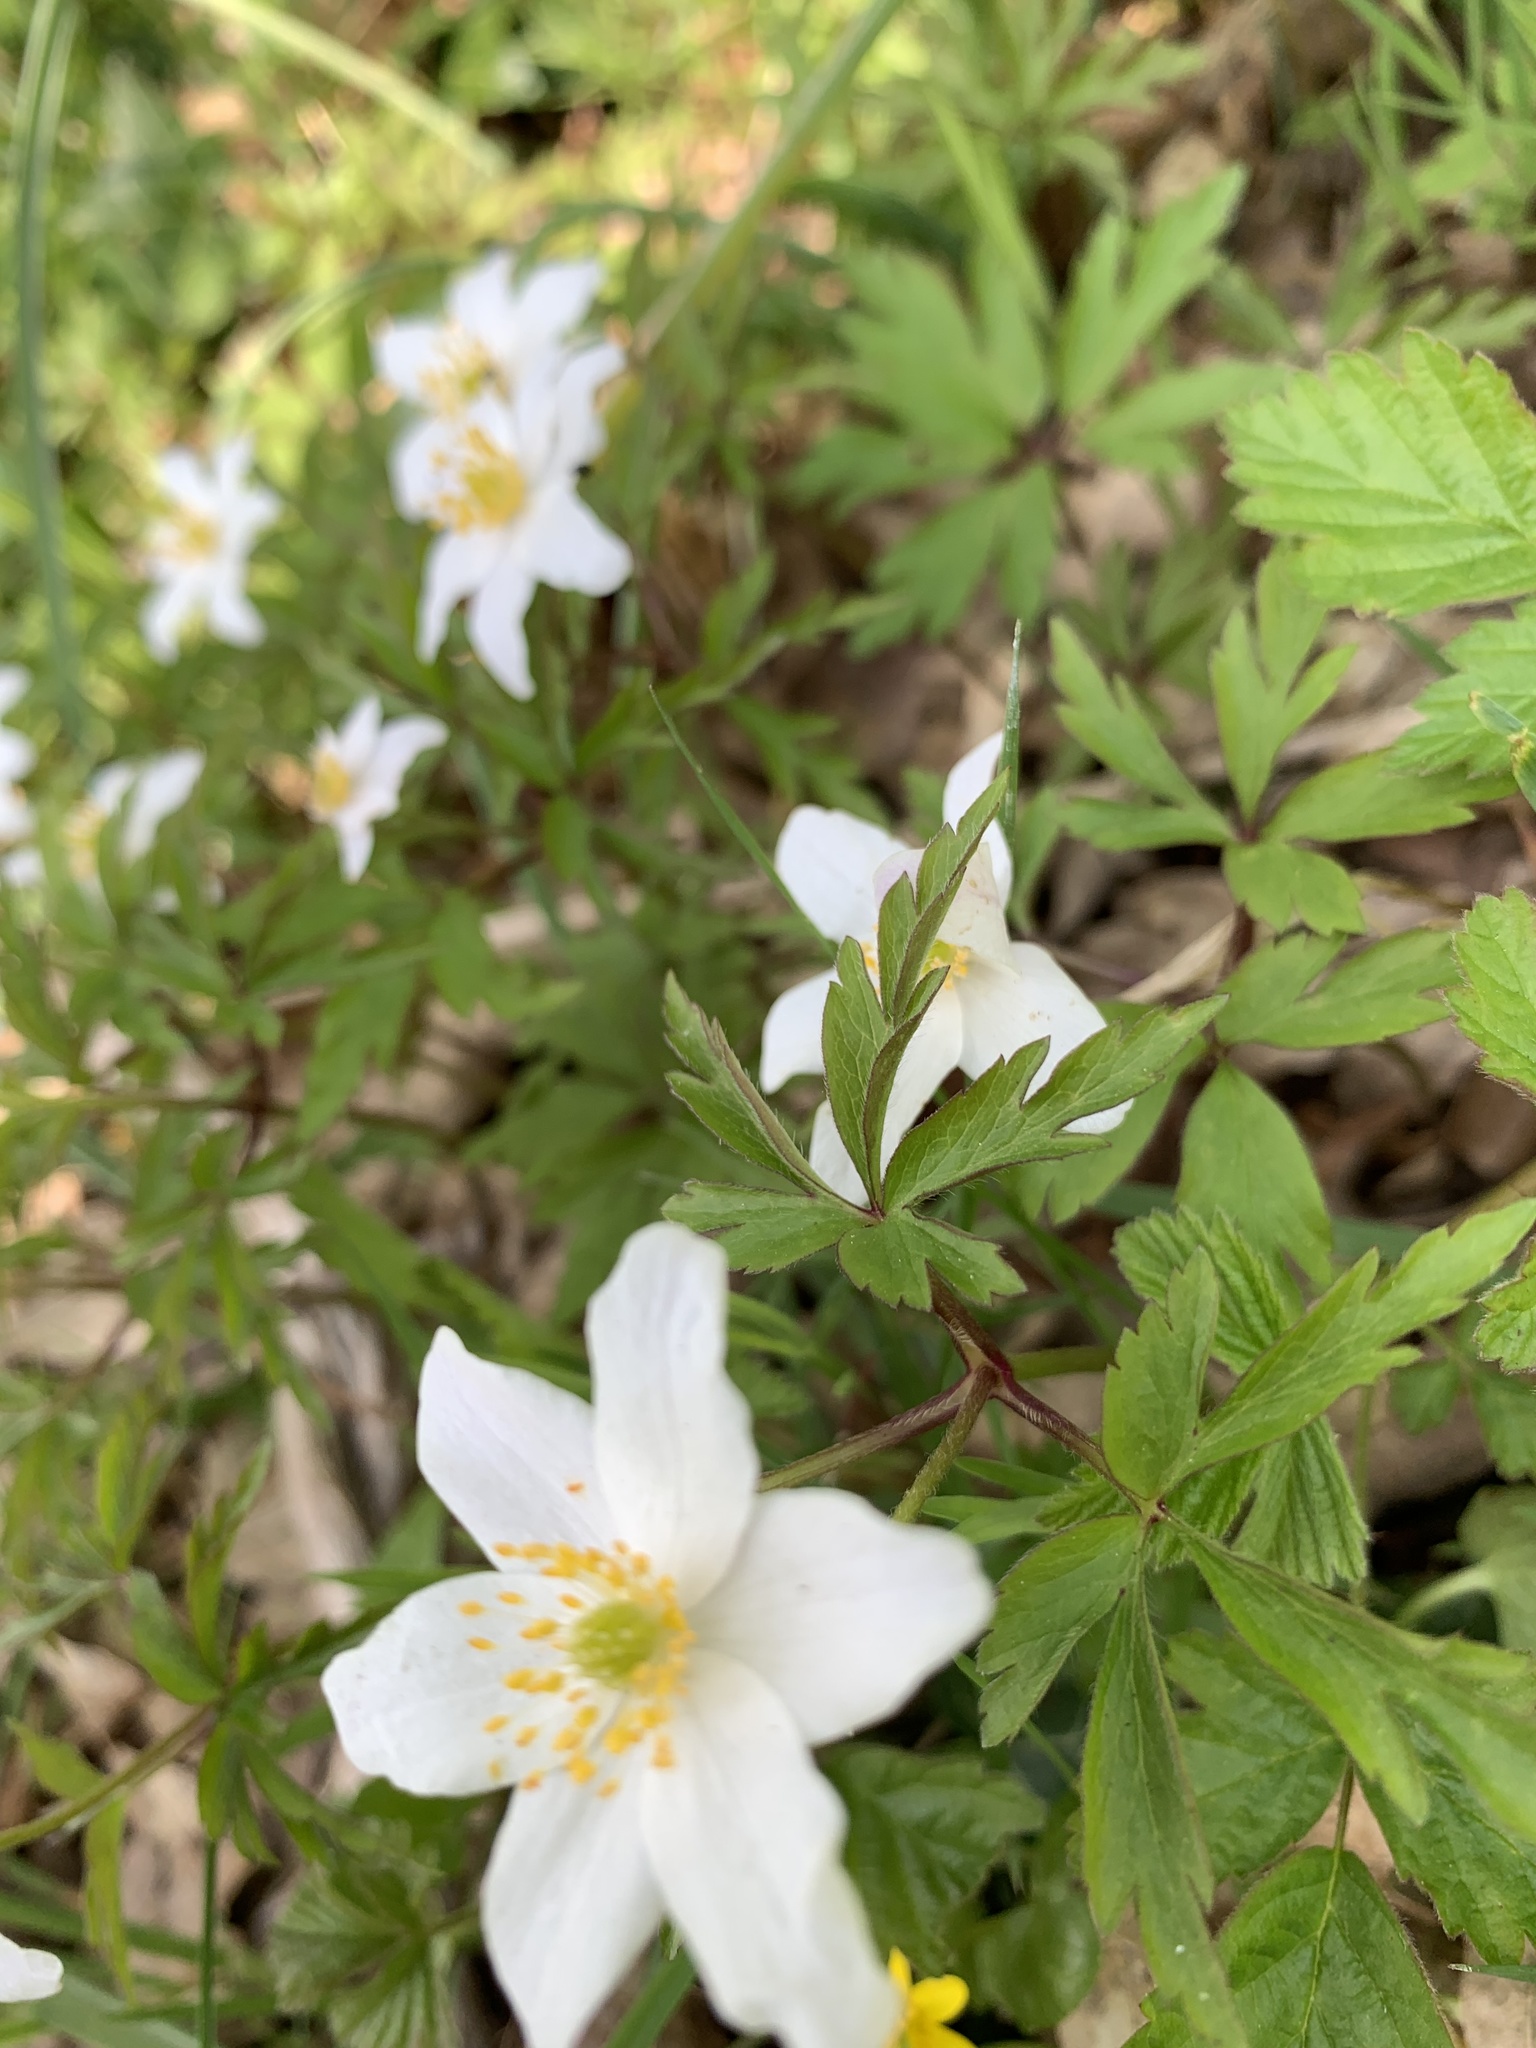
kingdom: Plantae
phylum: Tracheophyta
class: Magnoliopsida
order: Ranunculales
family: Ranunculaceae
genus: Anemone
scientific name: Anemone nemorosa
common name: Wood anemone
